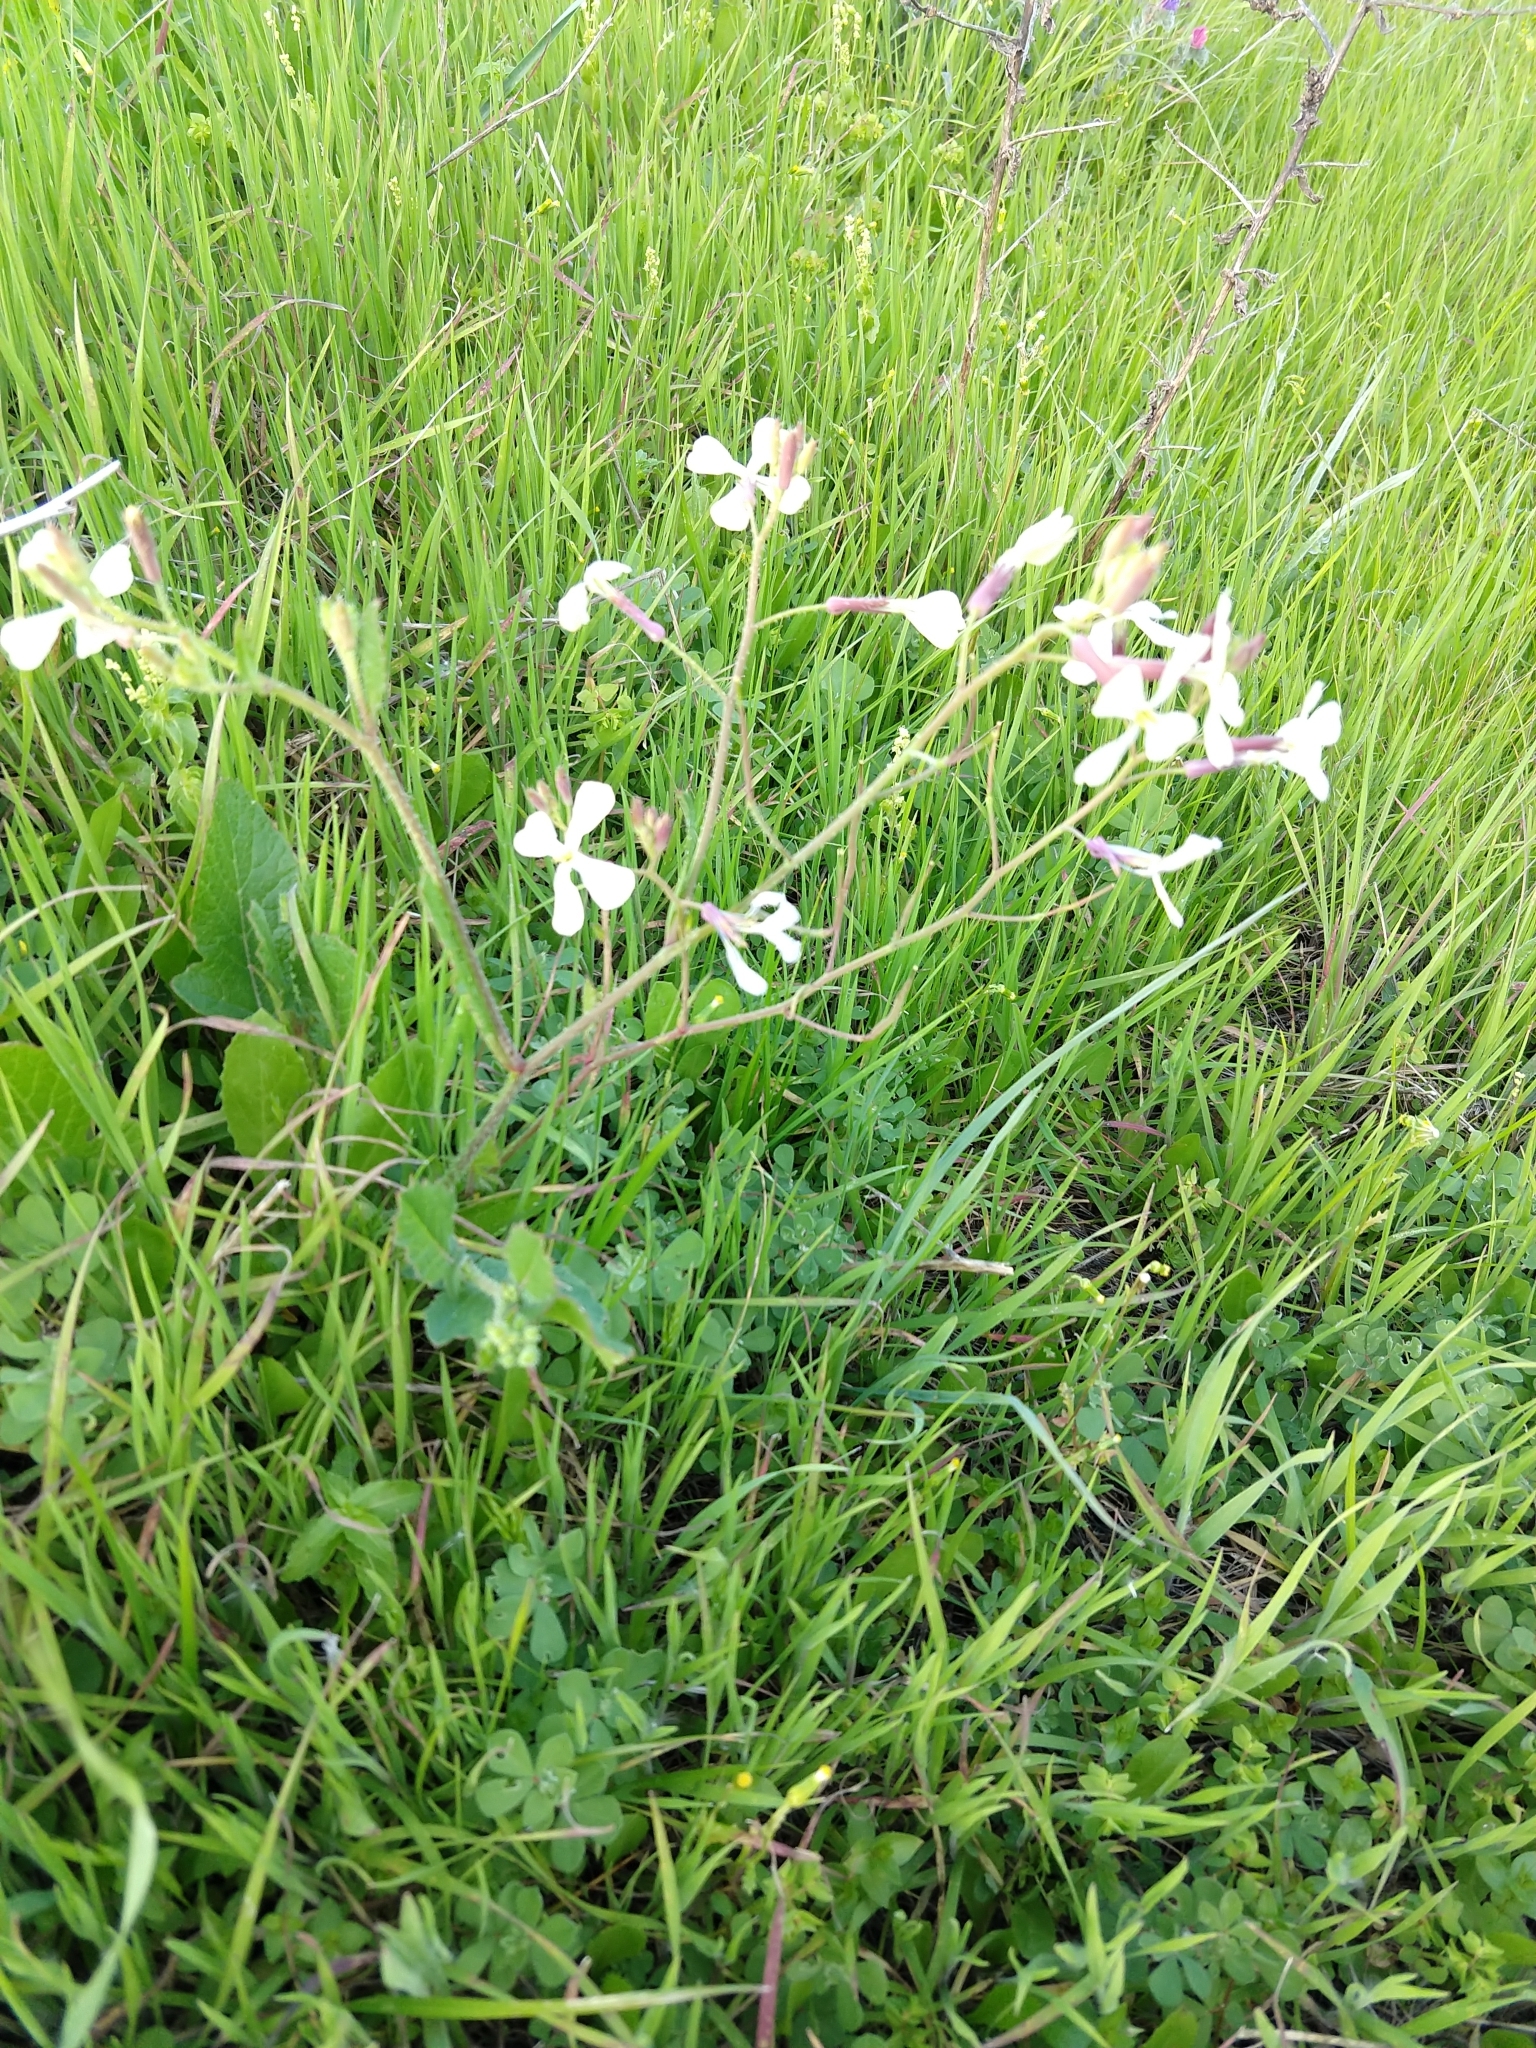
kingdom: Plantae
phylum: Tracheophyta
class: Magnoliopsida
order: Brassicales
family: Brassicaceae
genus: Raphanus
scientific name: Raphanus sativus
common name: Cultivated radish
